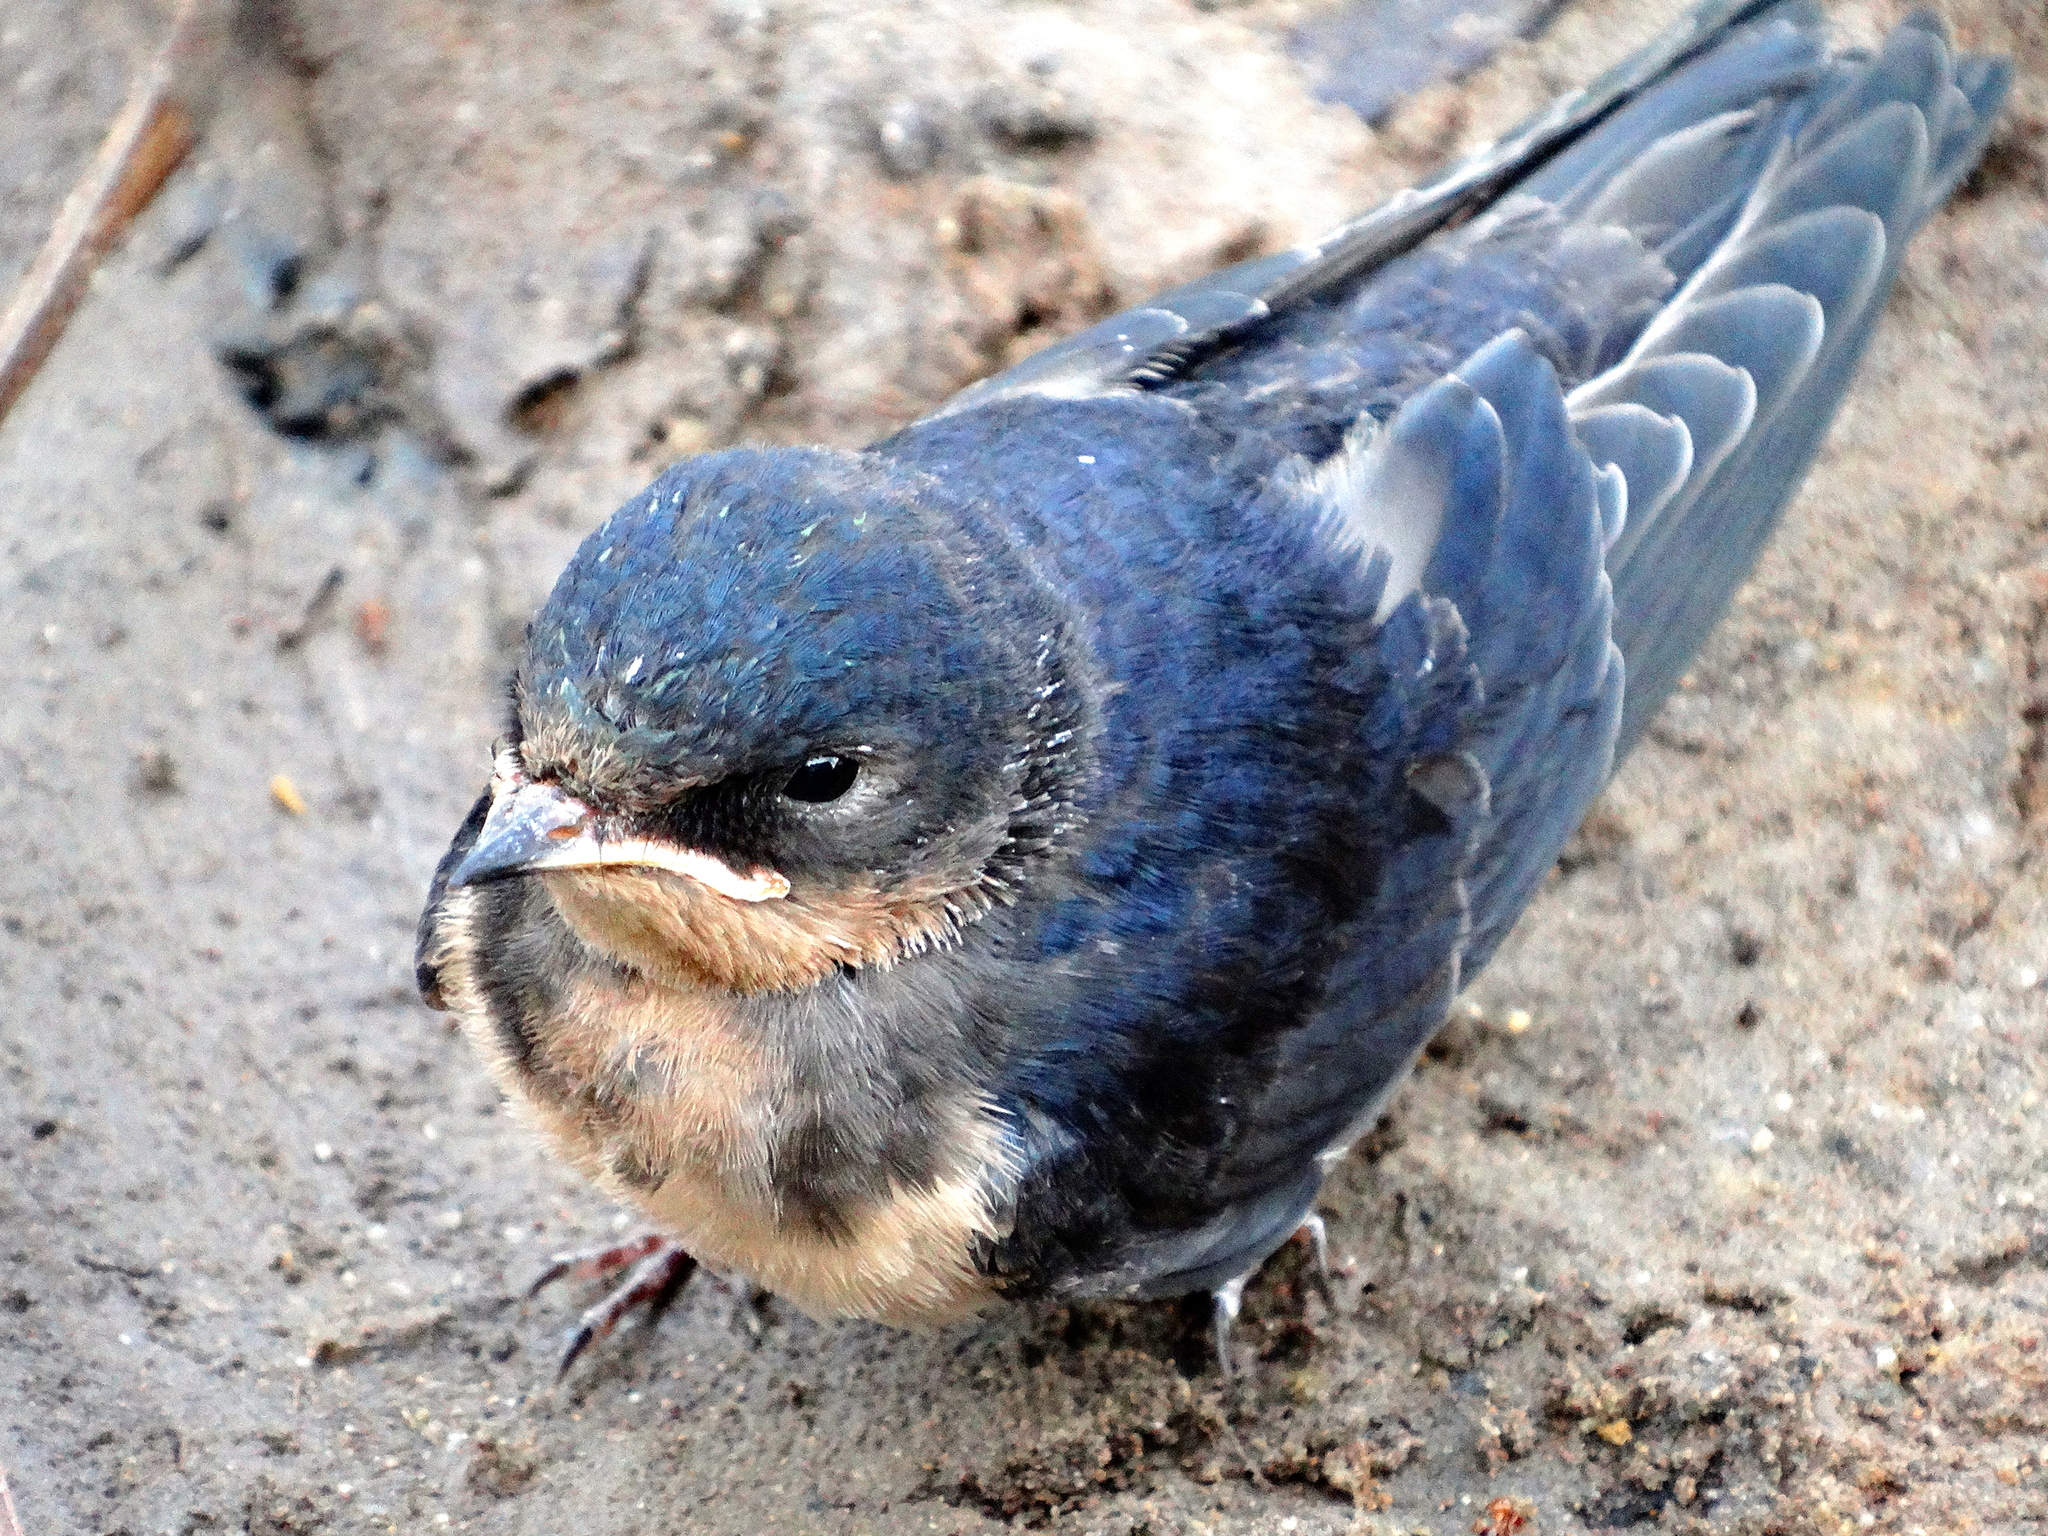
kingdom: Animalia
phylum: Chordata
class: Aves
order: Passeriformes
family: Hirundinidae
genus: Hirundo
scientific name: Hirundo rustica
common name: Barn swallow
